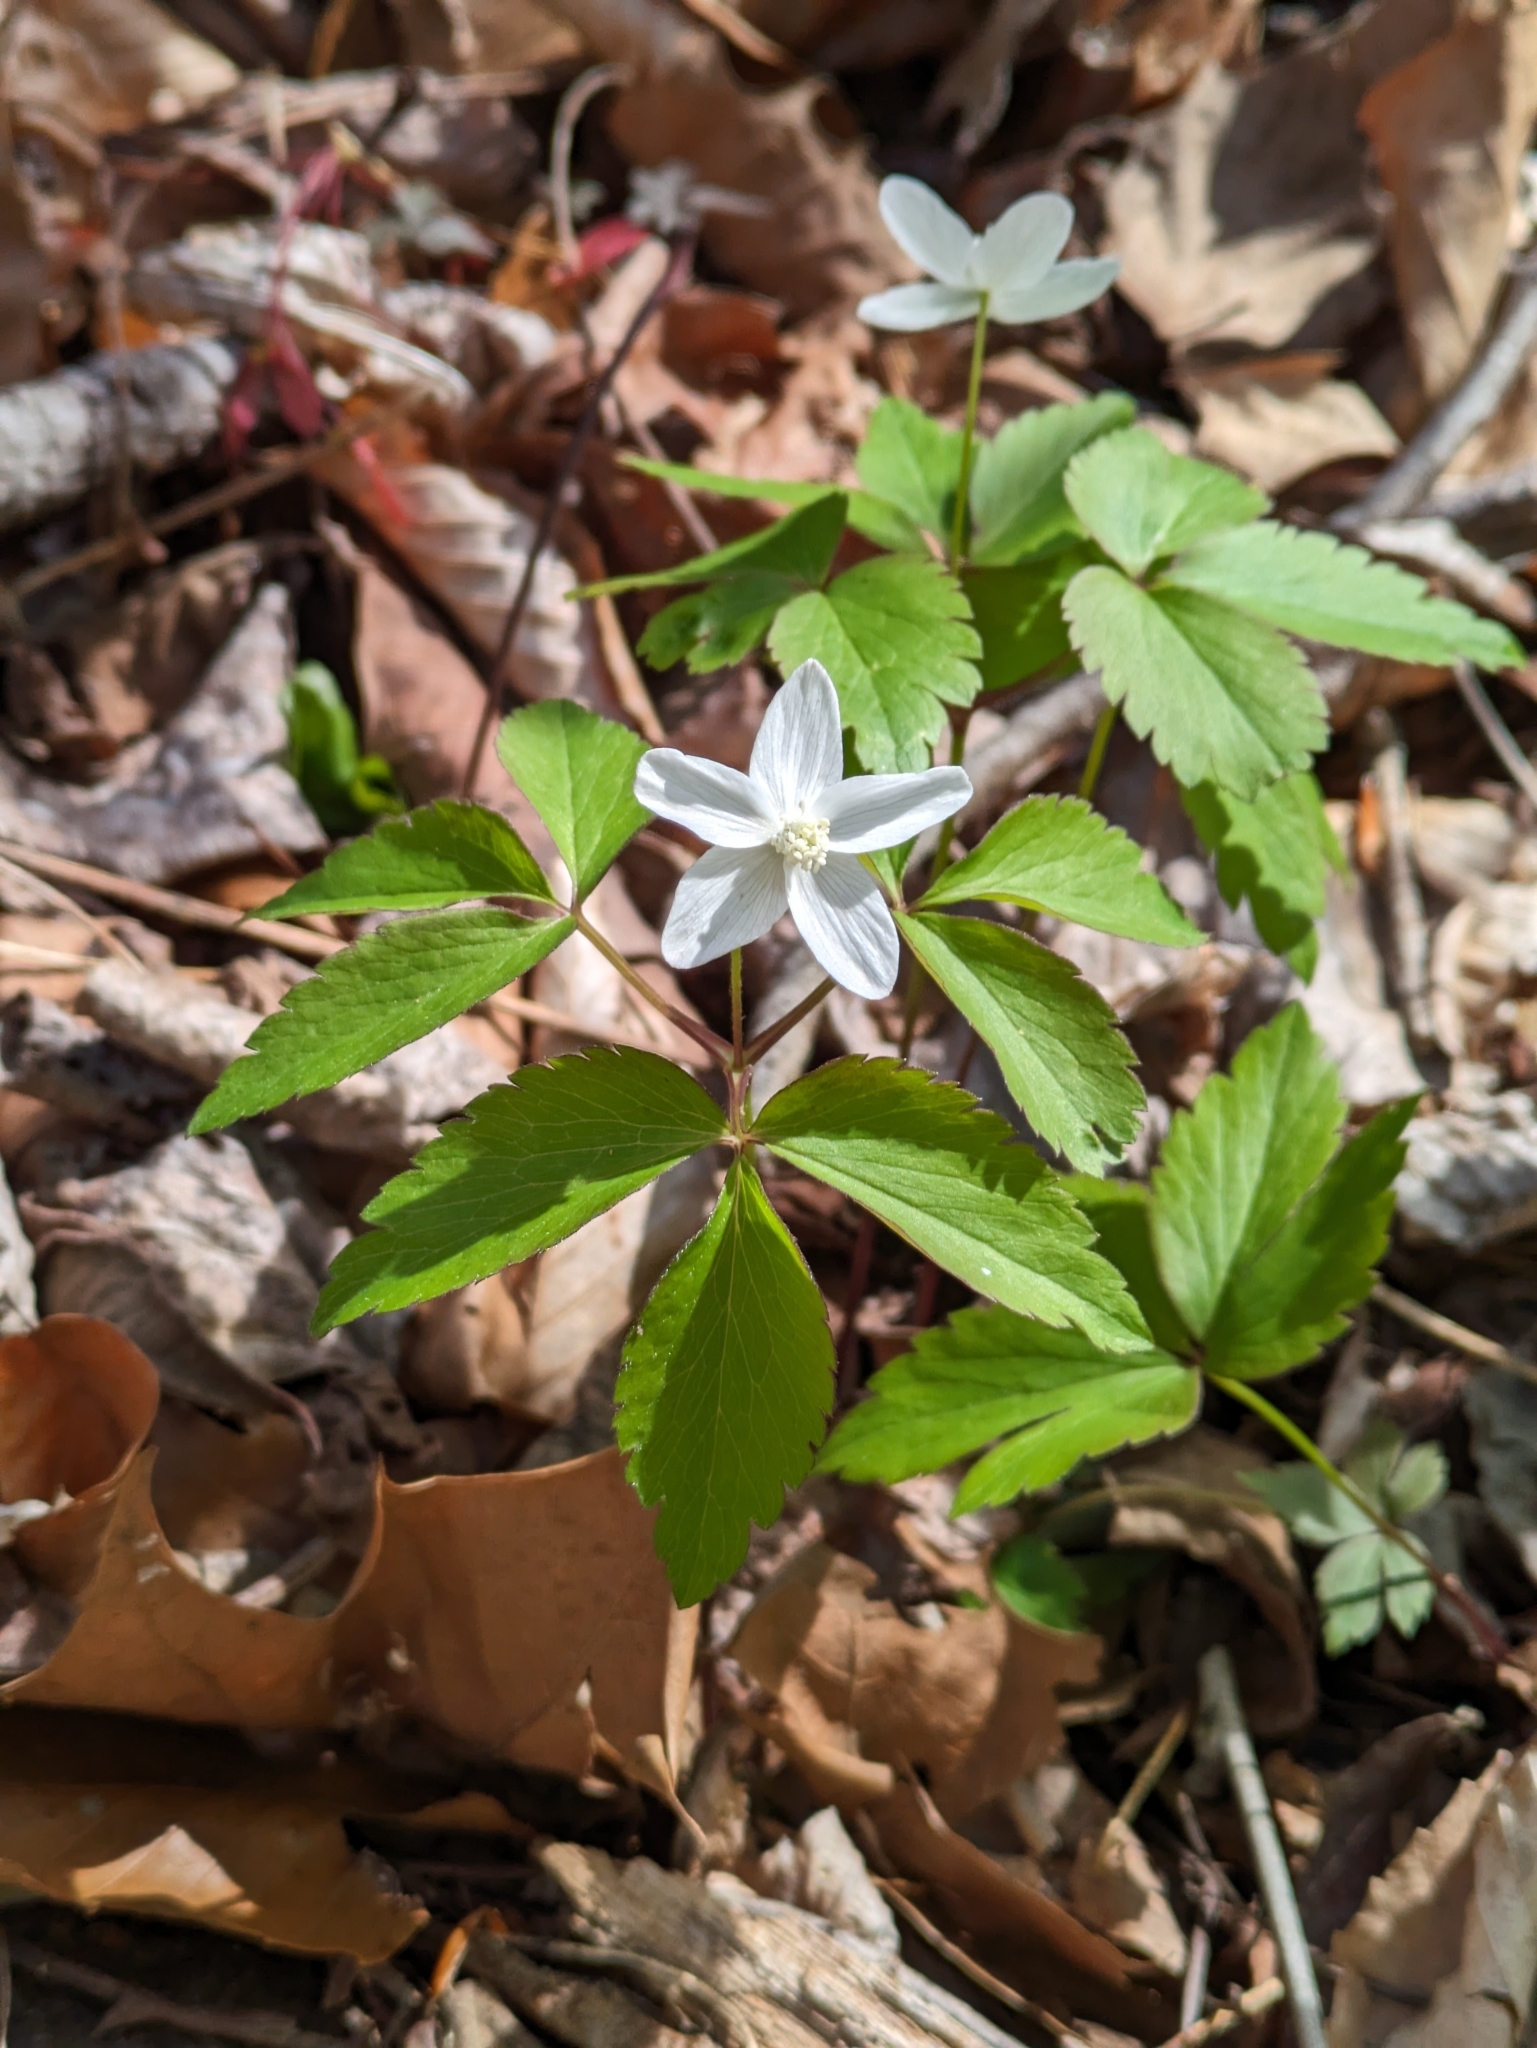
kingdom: Plantae
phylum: Tracheophyta
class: Magnoliopsida
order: Ranunculales
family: Ranunculaceae
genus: Anemone
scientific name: Anemone lancifolia
